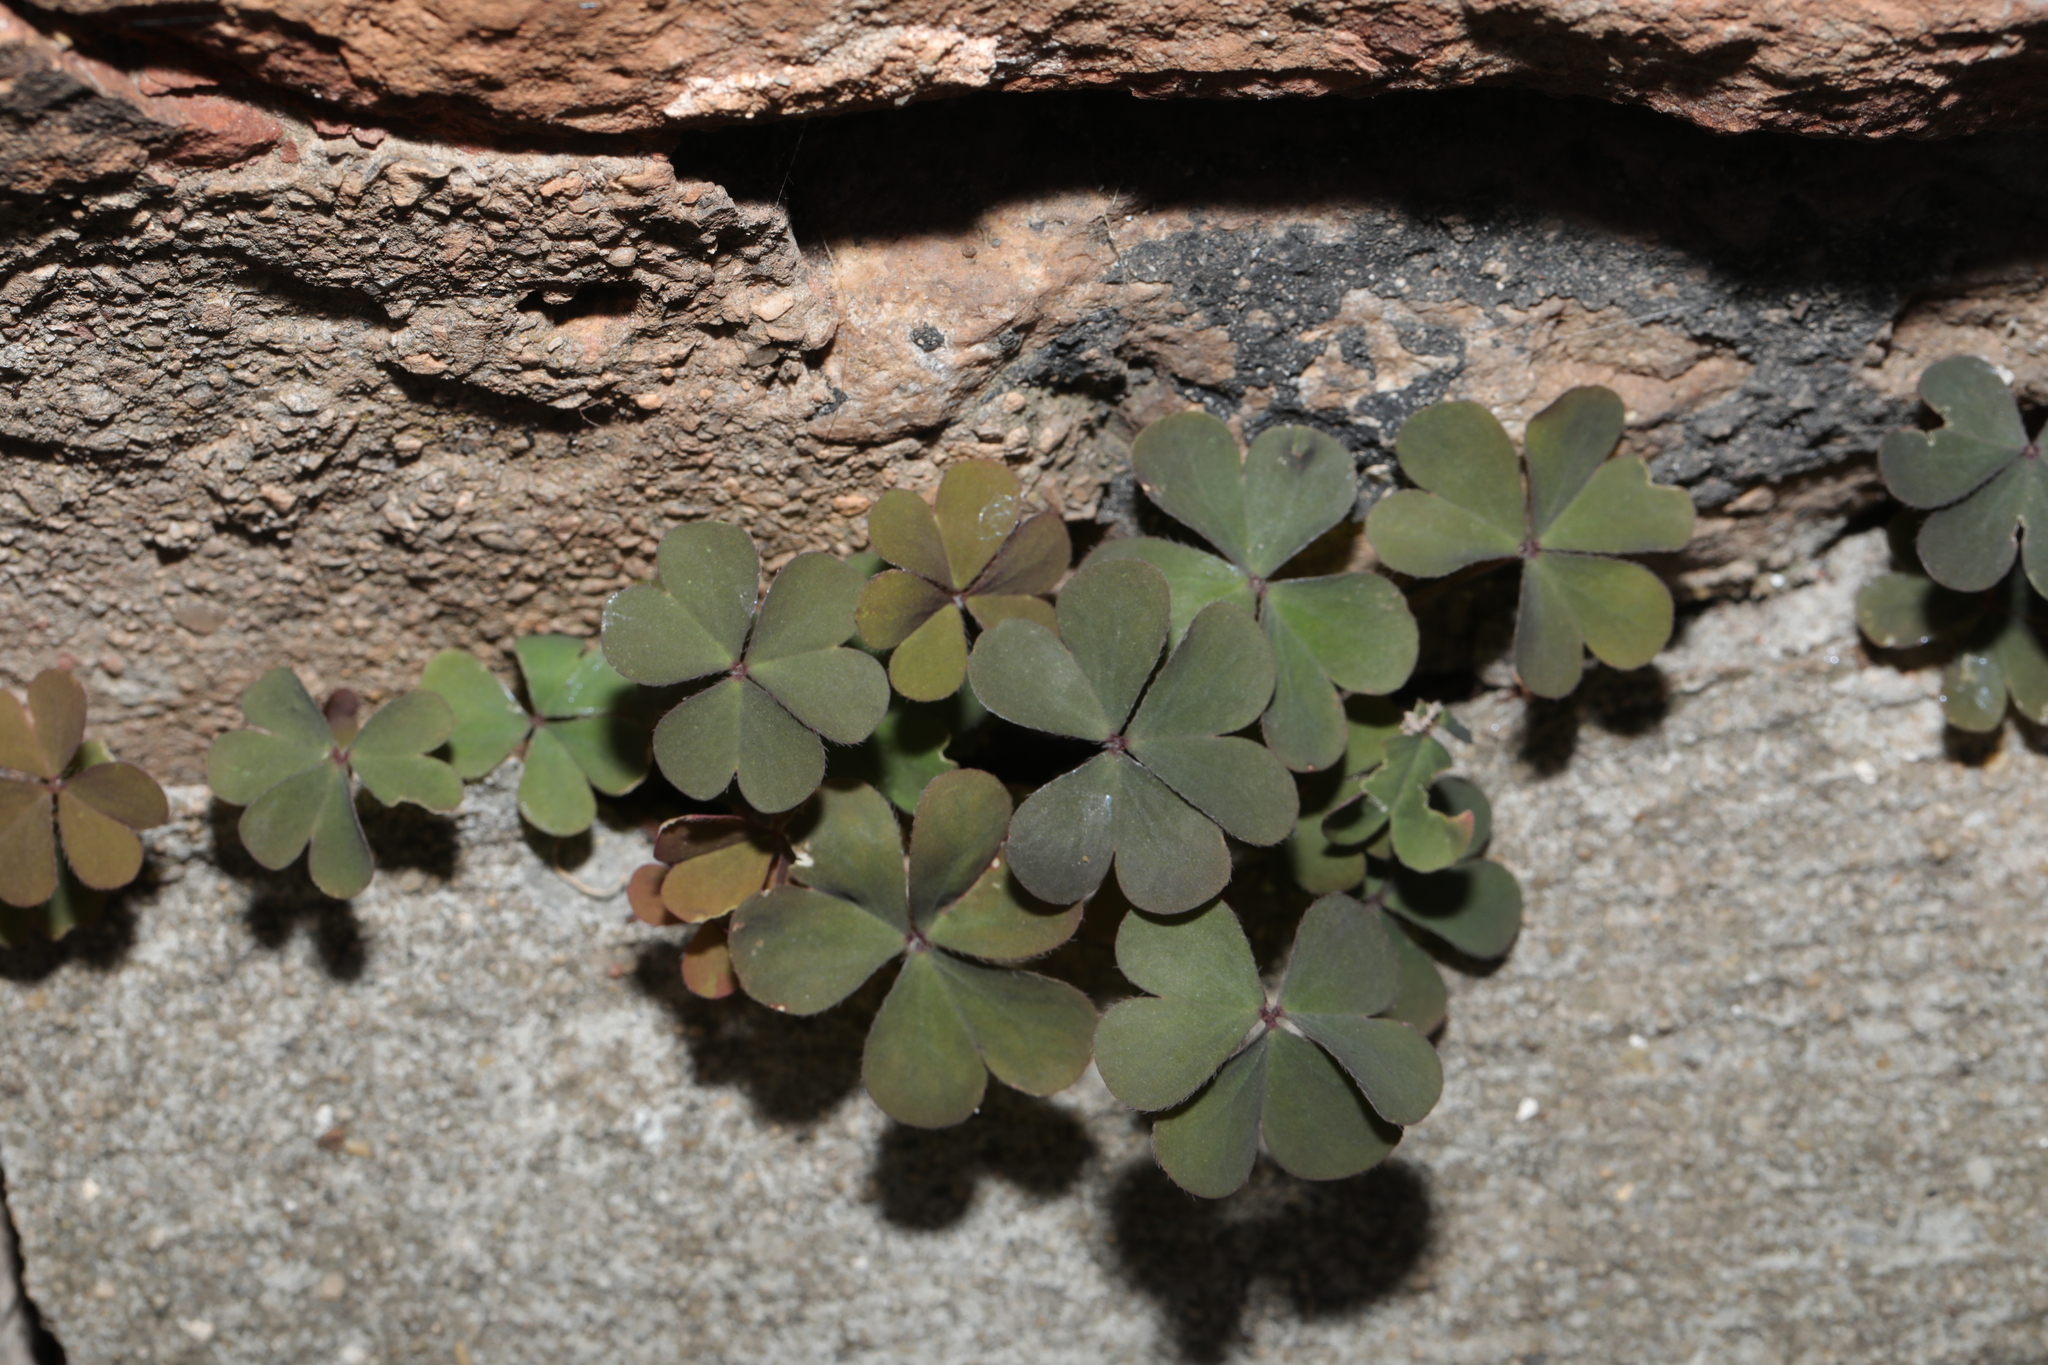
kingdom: Plantae
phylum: Tracheophyta
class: Magnoliopsida
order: Oxalidales
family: Oxalidaceae
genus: Oxalis
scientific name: Oxalis corniculata
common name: Procumbent yellow-sorrel
